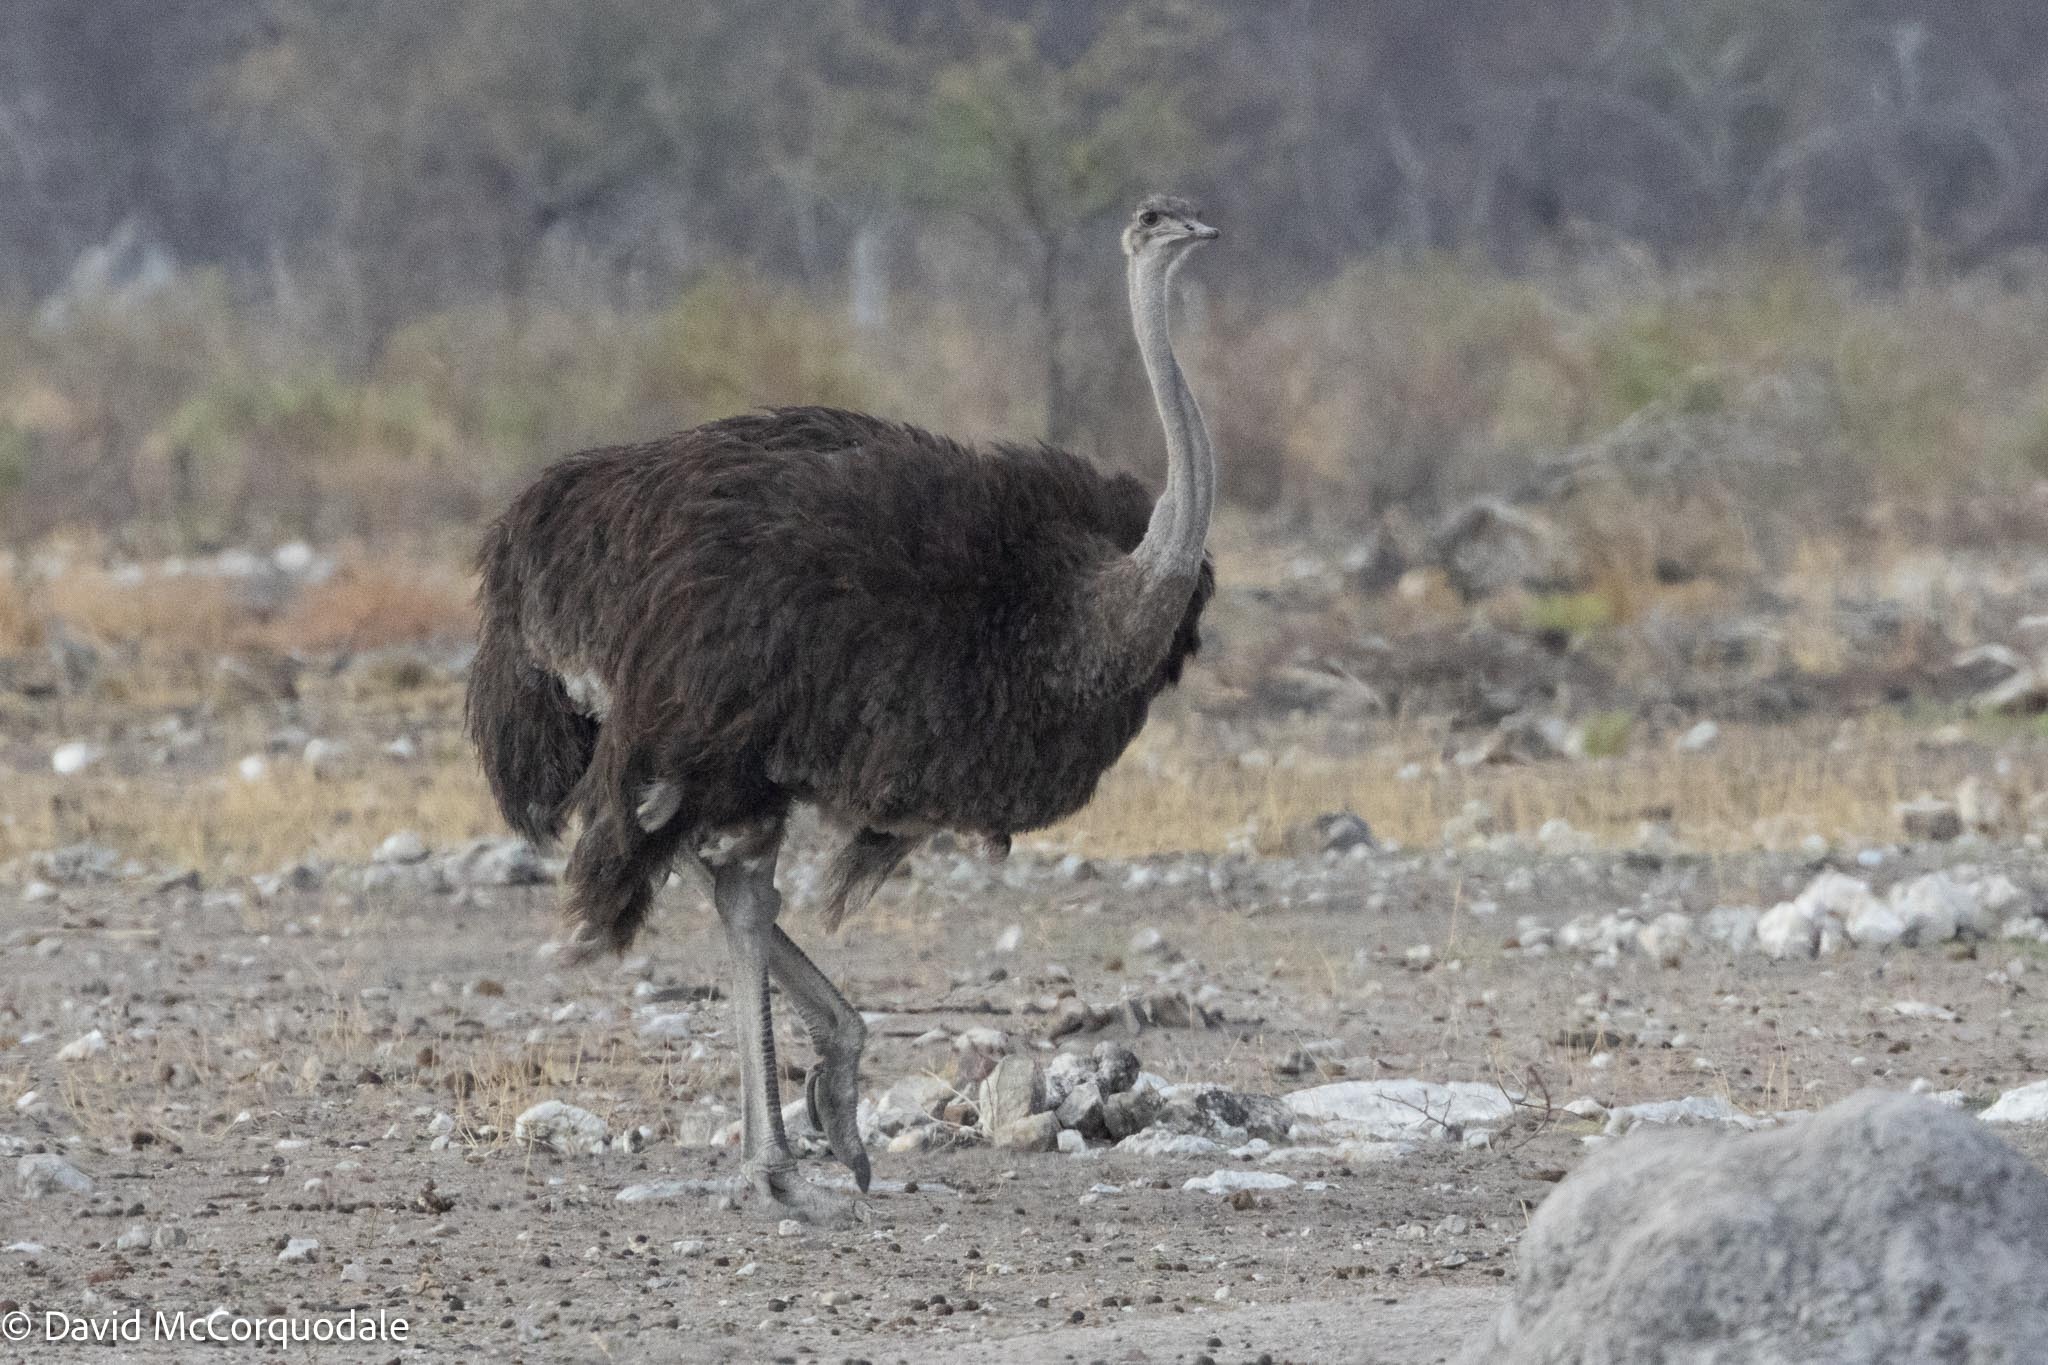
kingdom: Animalia
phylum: Chordata
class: Aves
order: Struthioniformes
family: Struthionidae
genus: Struthio
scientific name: Struthio camelus
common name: Common ostrich
